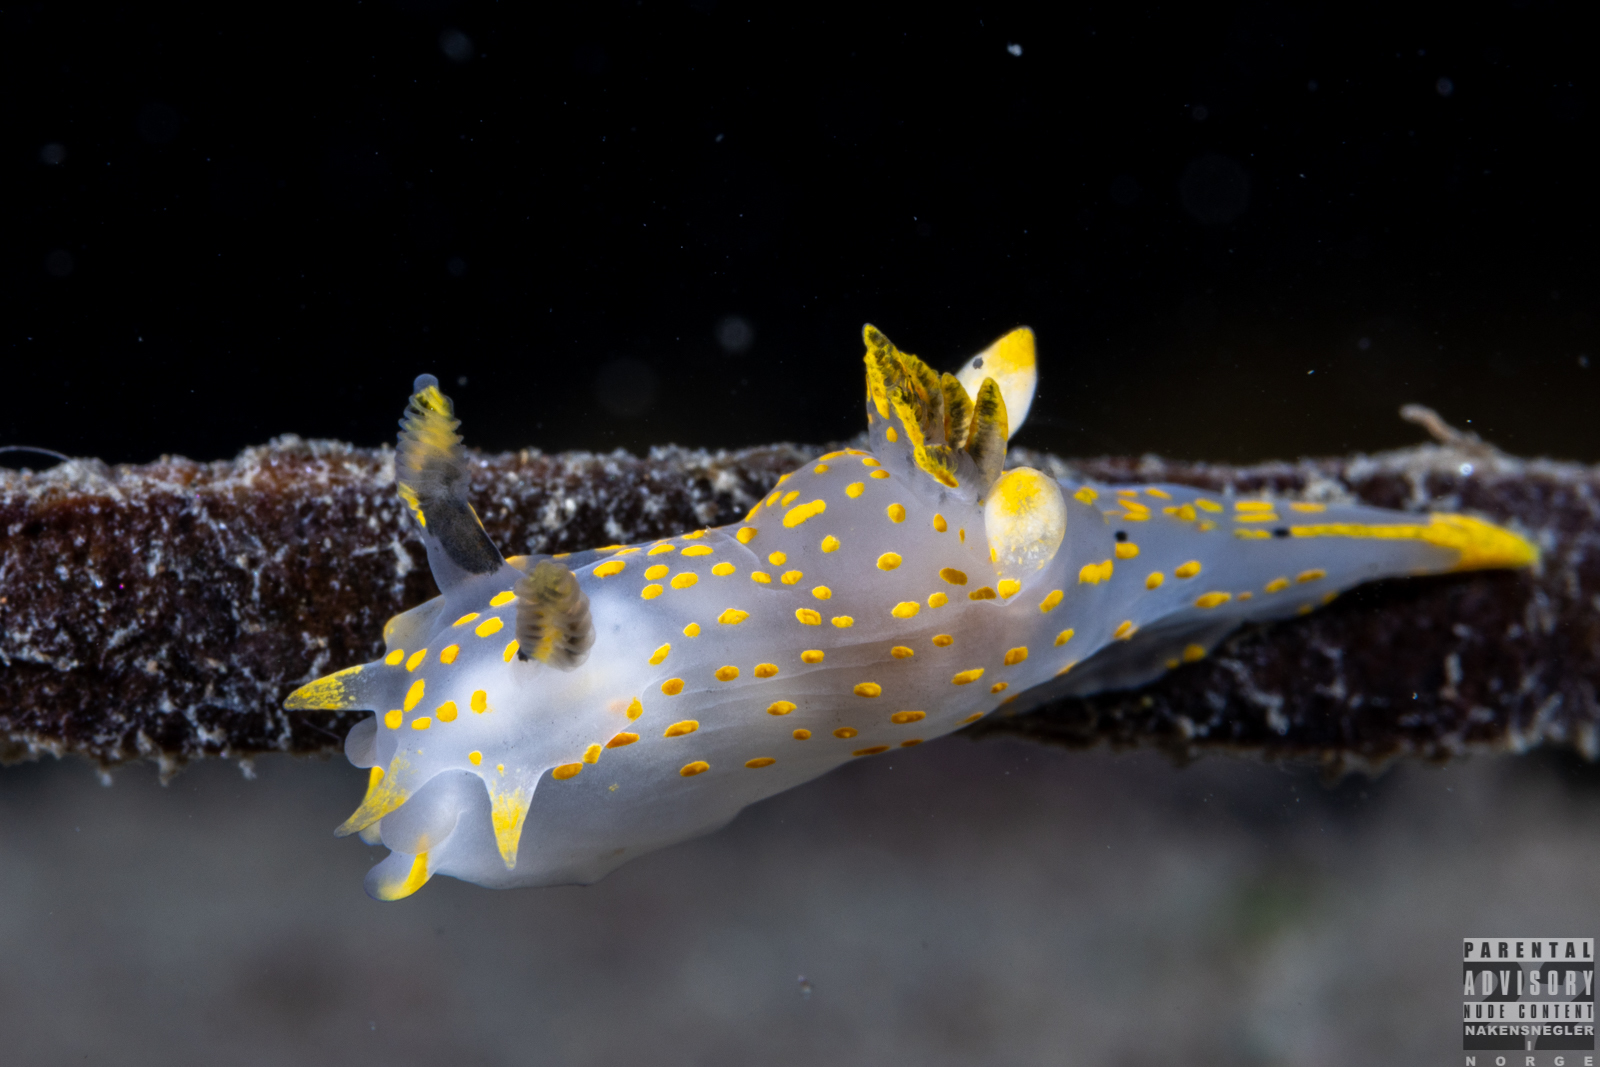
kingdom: Animalia
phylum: Mollusca
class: Gastropoda
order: Nudibranchia
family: Polyceridae
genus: Polycera
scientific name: Polycera quadrilineata
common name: Four-striped polycera
